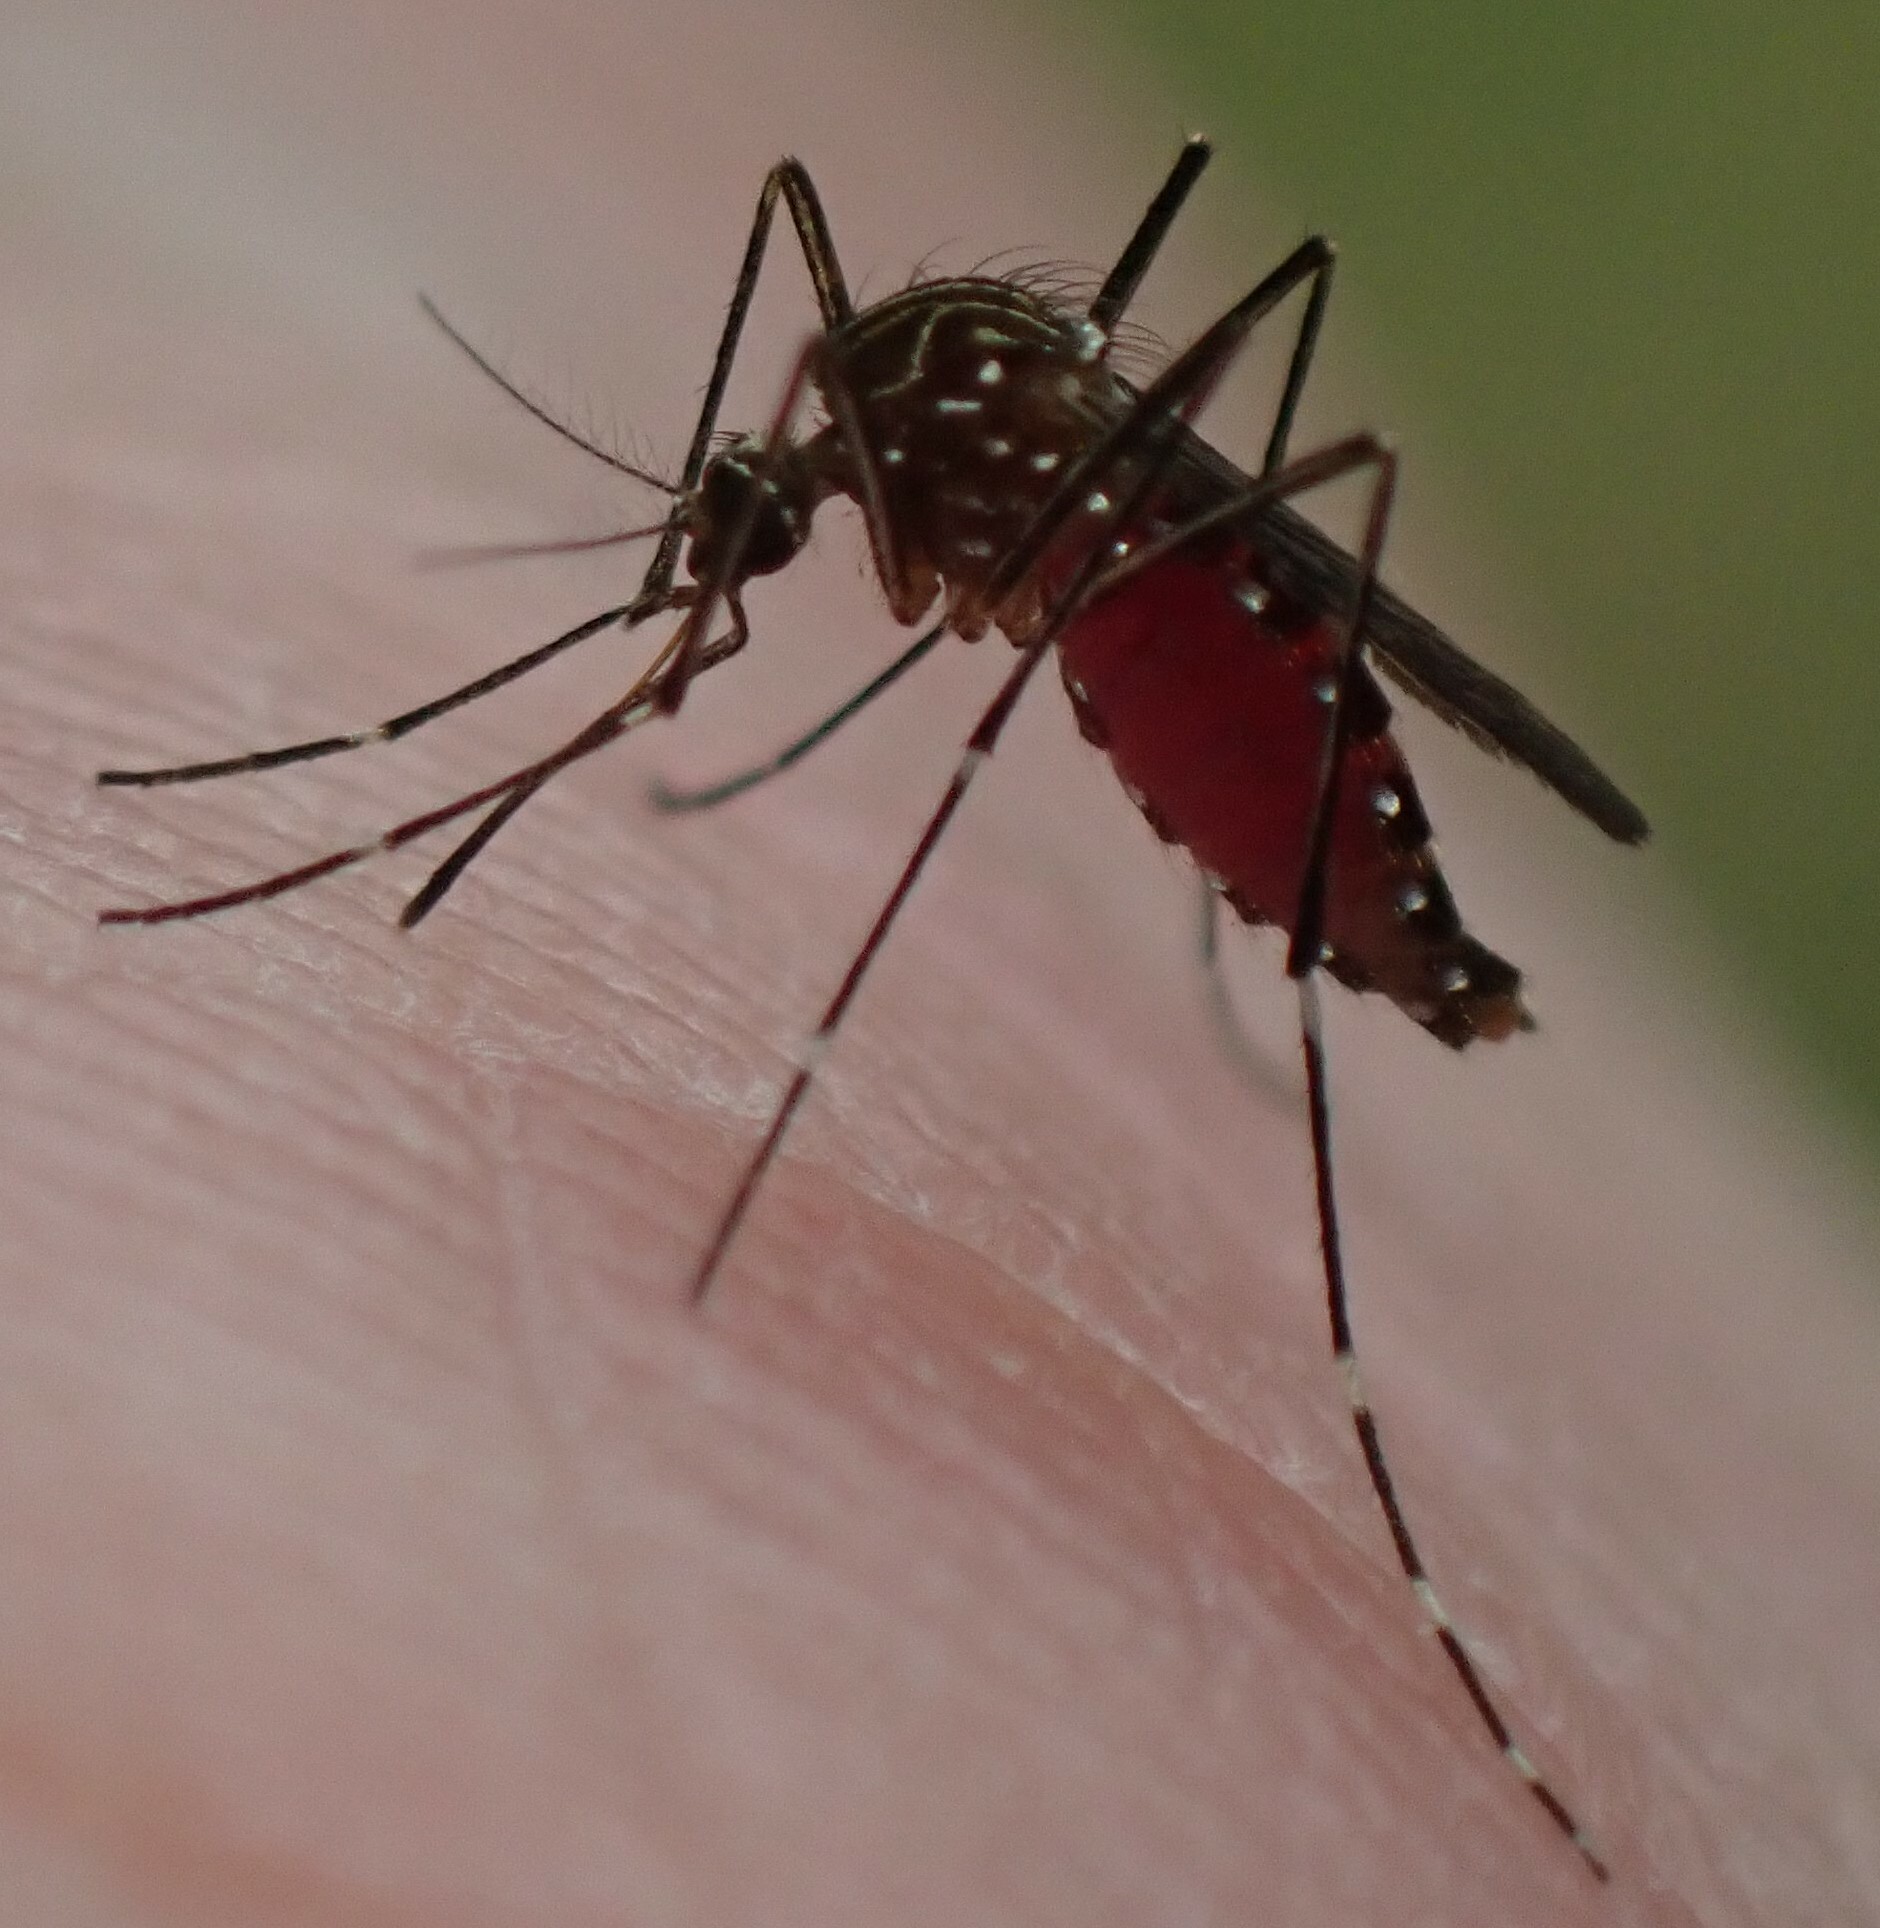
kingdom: Animalia
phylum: Arthropoda
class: Insecta
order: Diptera
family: Culicidae
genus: Aedes
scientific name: Aedes notoscriptus
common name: Australian backyard mosquito
